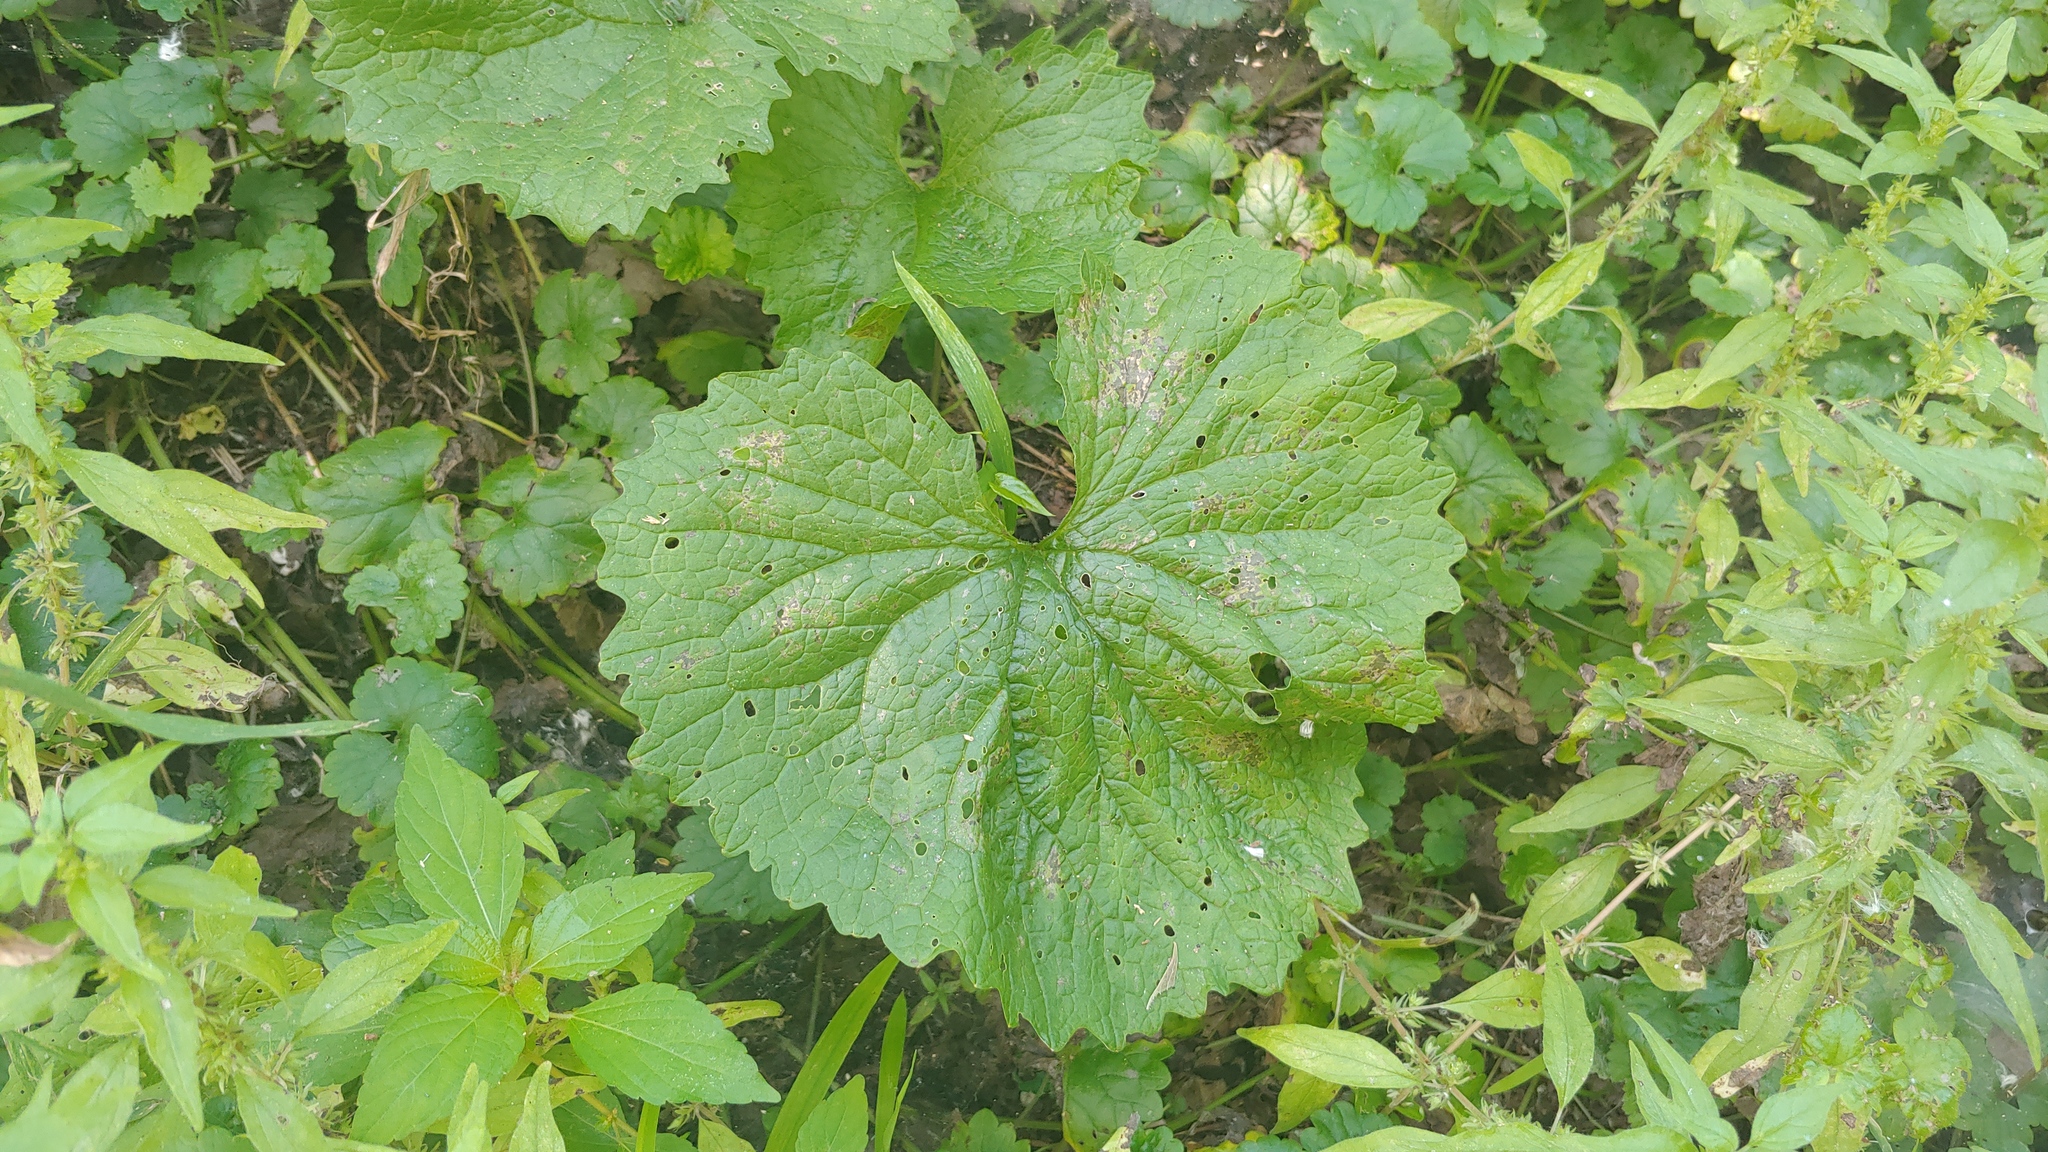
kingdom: Plantae
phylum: Tracheophyta
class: Magnoliopsida
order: Brassicales
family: Brassicaceae
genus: Alliaria
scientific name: Alliaria petiolata
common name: Garlic mustard
